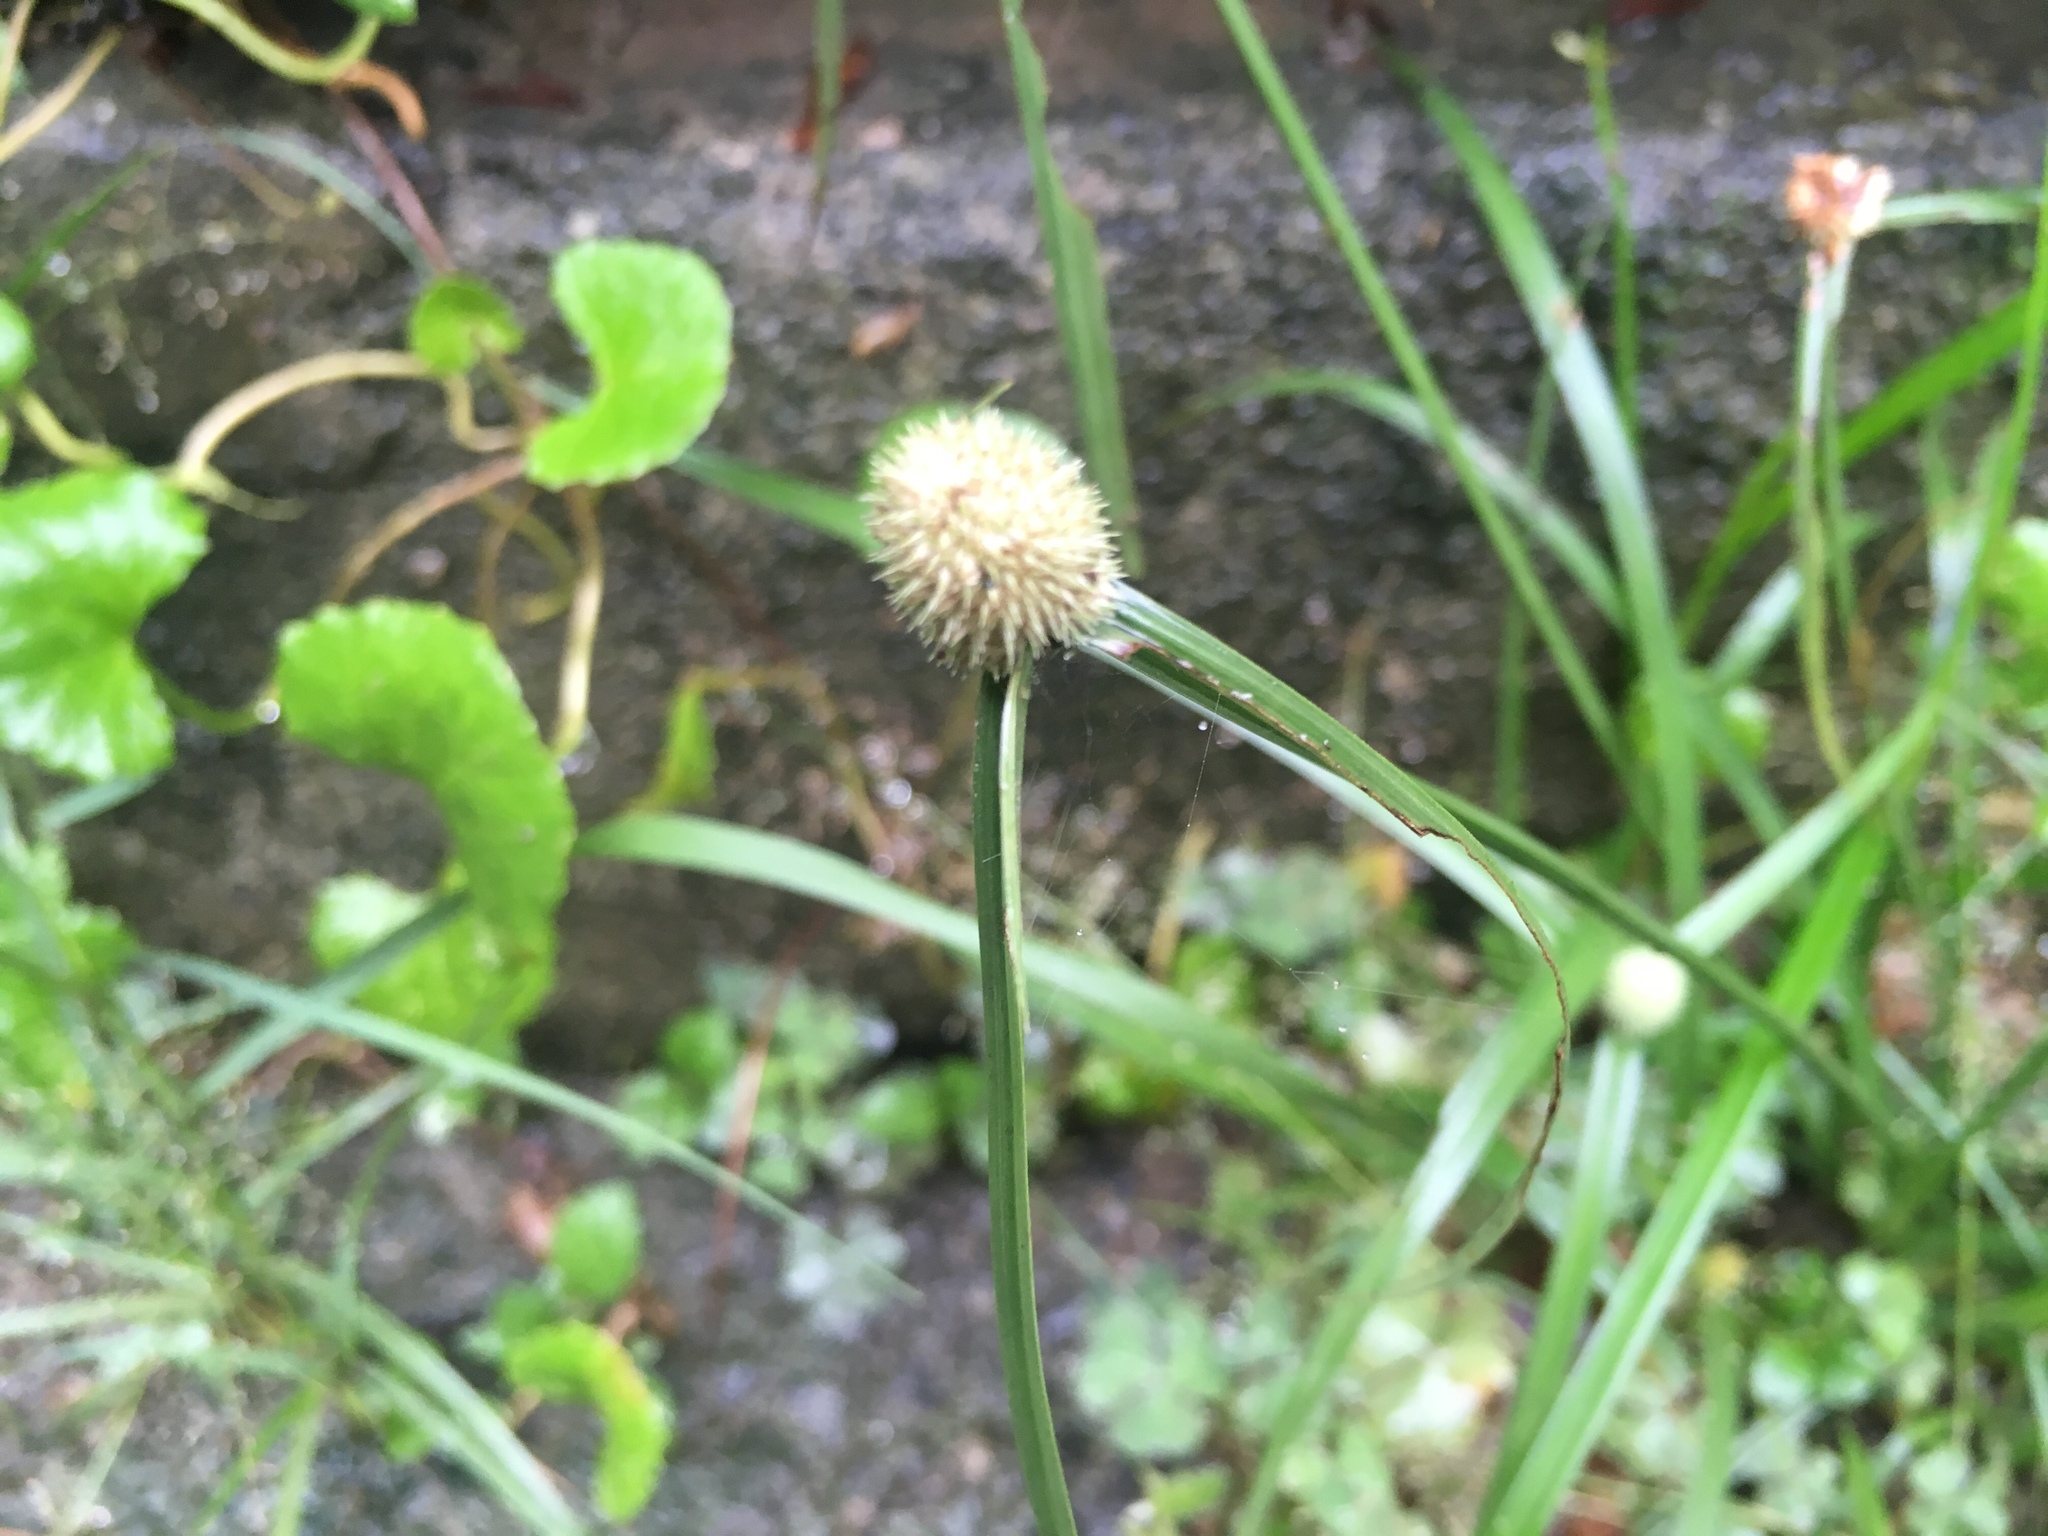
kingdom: Plantae
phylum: Tracheophyta
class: Liliopsida
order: Poales
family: Cyperaceae
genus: Cyperus
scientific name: Cyperus mindorensis
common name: Flatsedge
